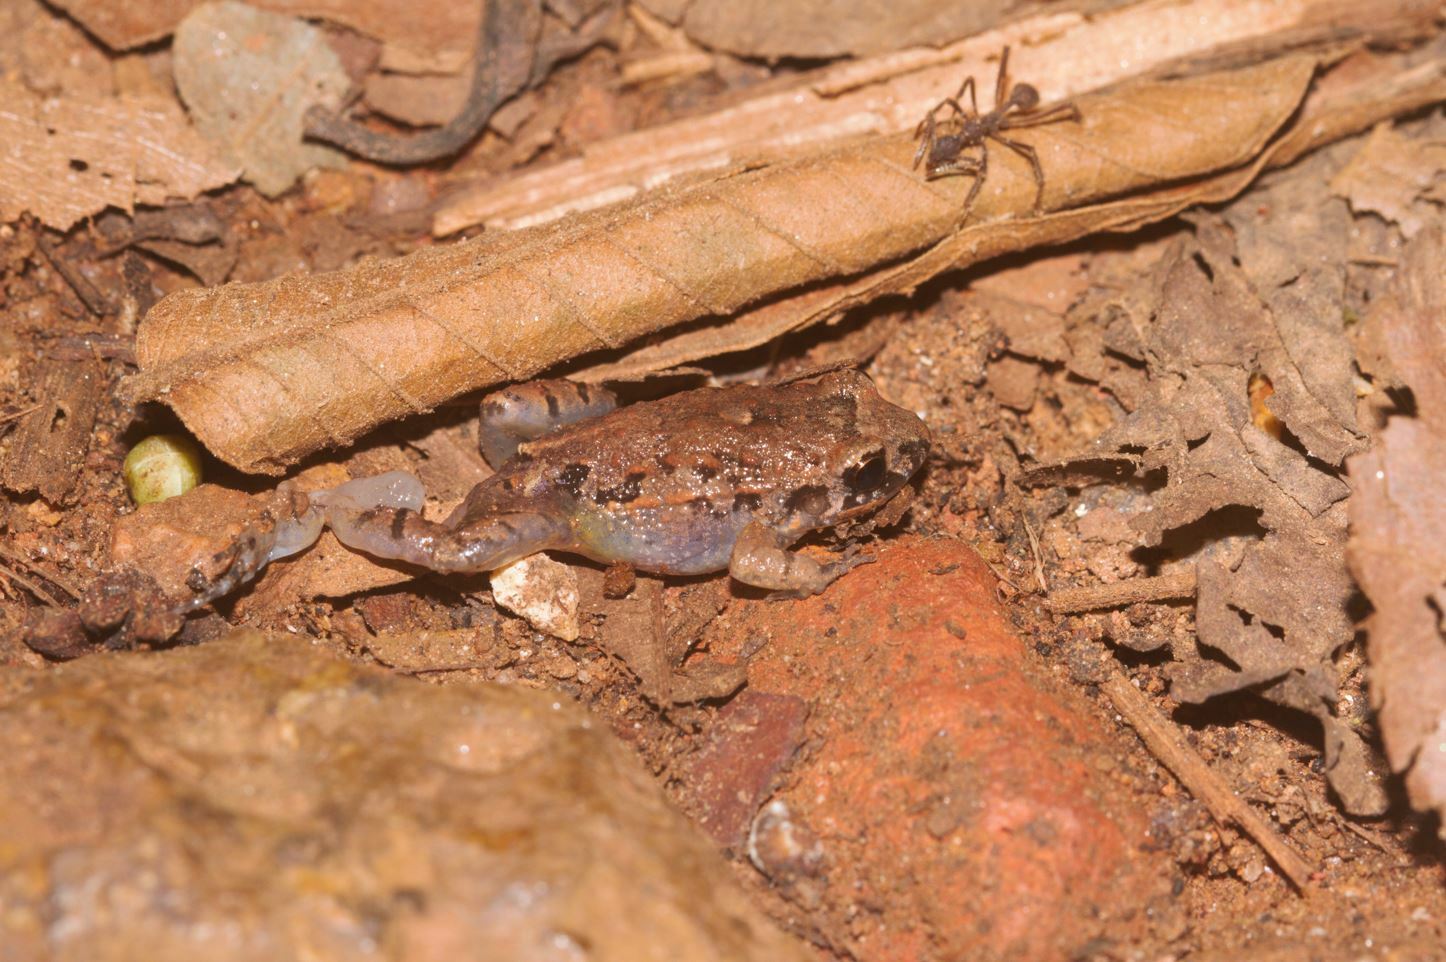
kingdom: Animalia
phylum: Chordata
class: Amphibia
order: Anura
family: Leptodactylidae
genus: Adenomera
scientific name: Adenomera andreae
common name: Lowland tropical bullfrog
